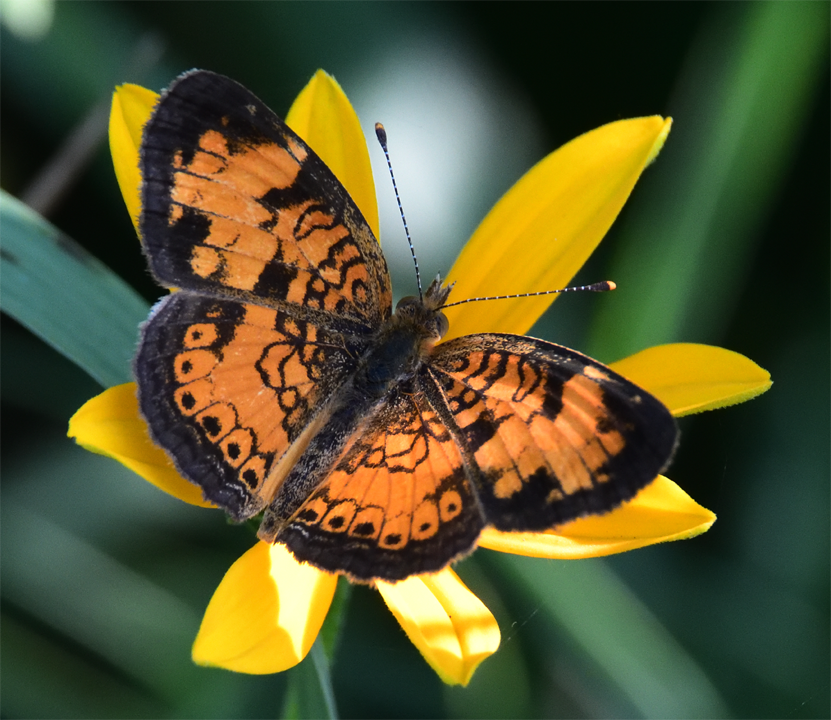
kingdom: Animalia
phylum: Arthropoda
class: Insecta
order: Lepidoptera
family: Nymphalidae
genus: Phyciodes
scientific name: Phyciodes tharos
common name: Pearl crescent
